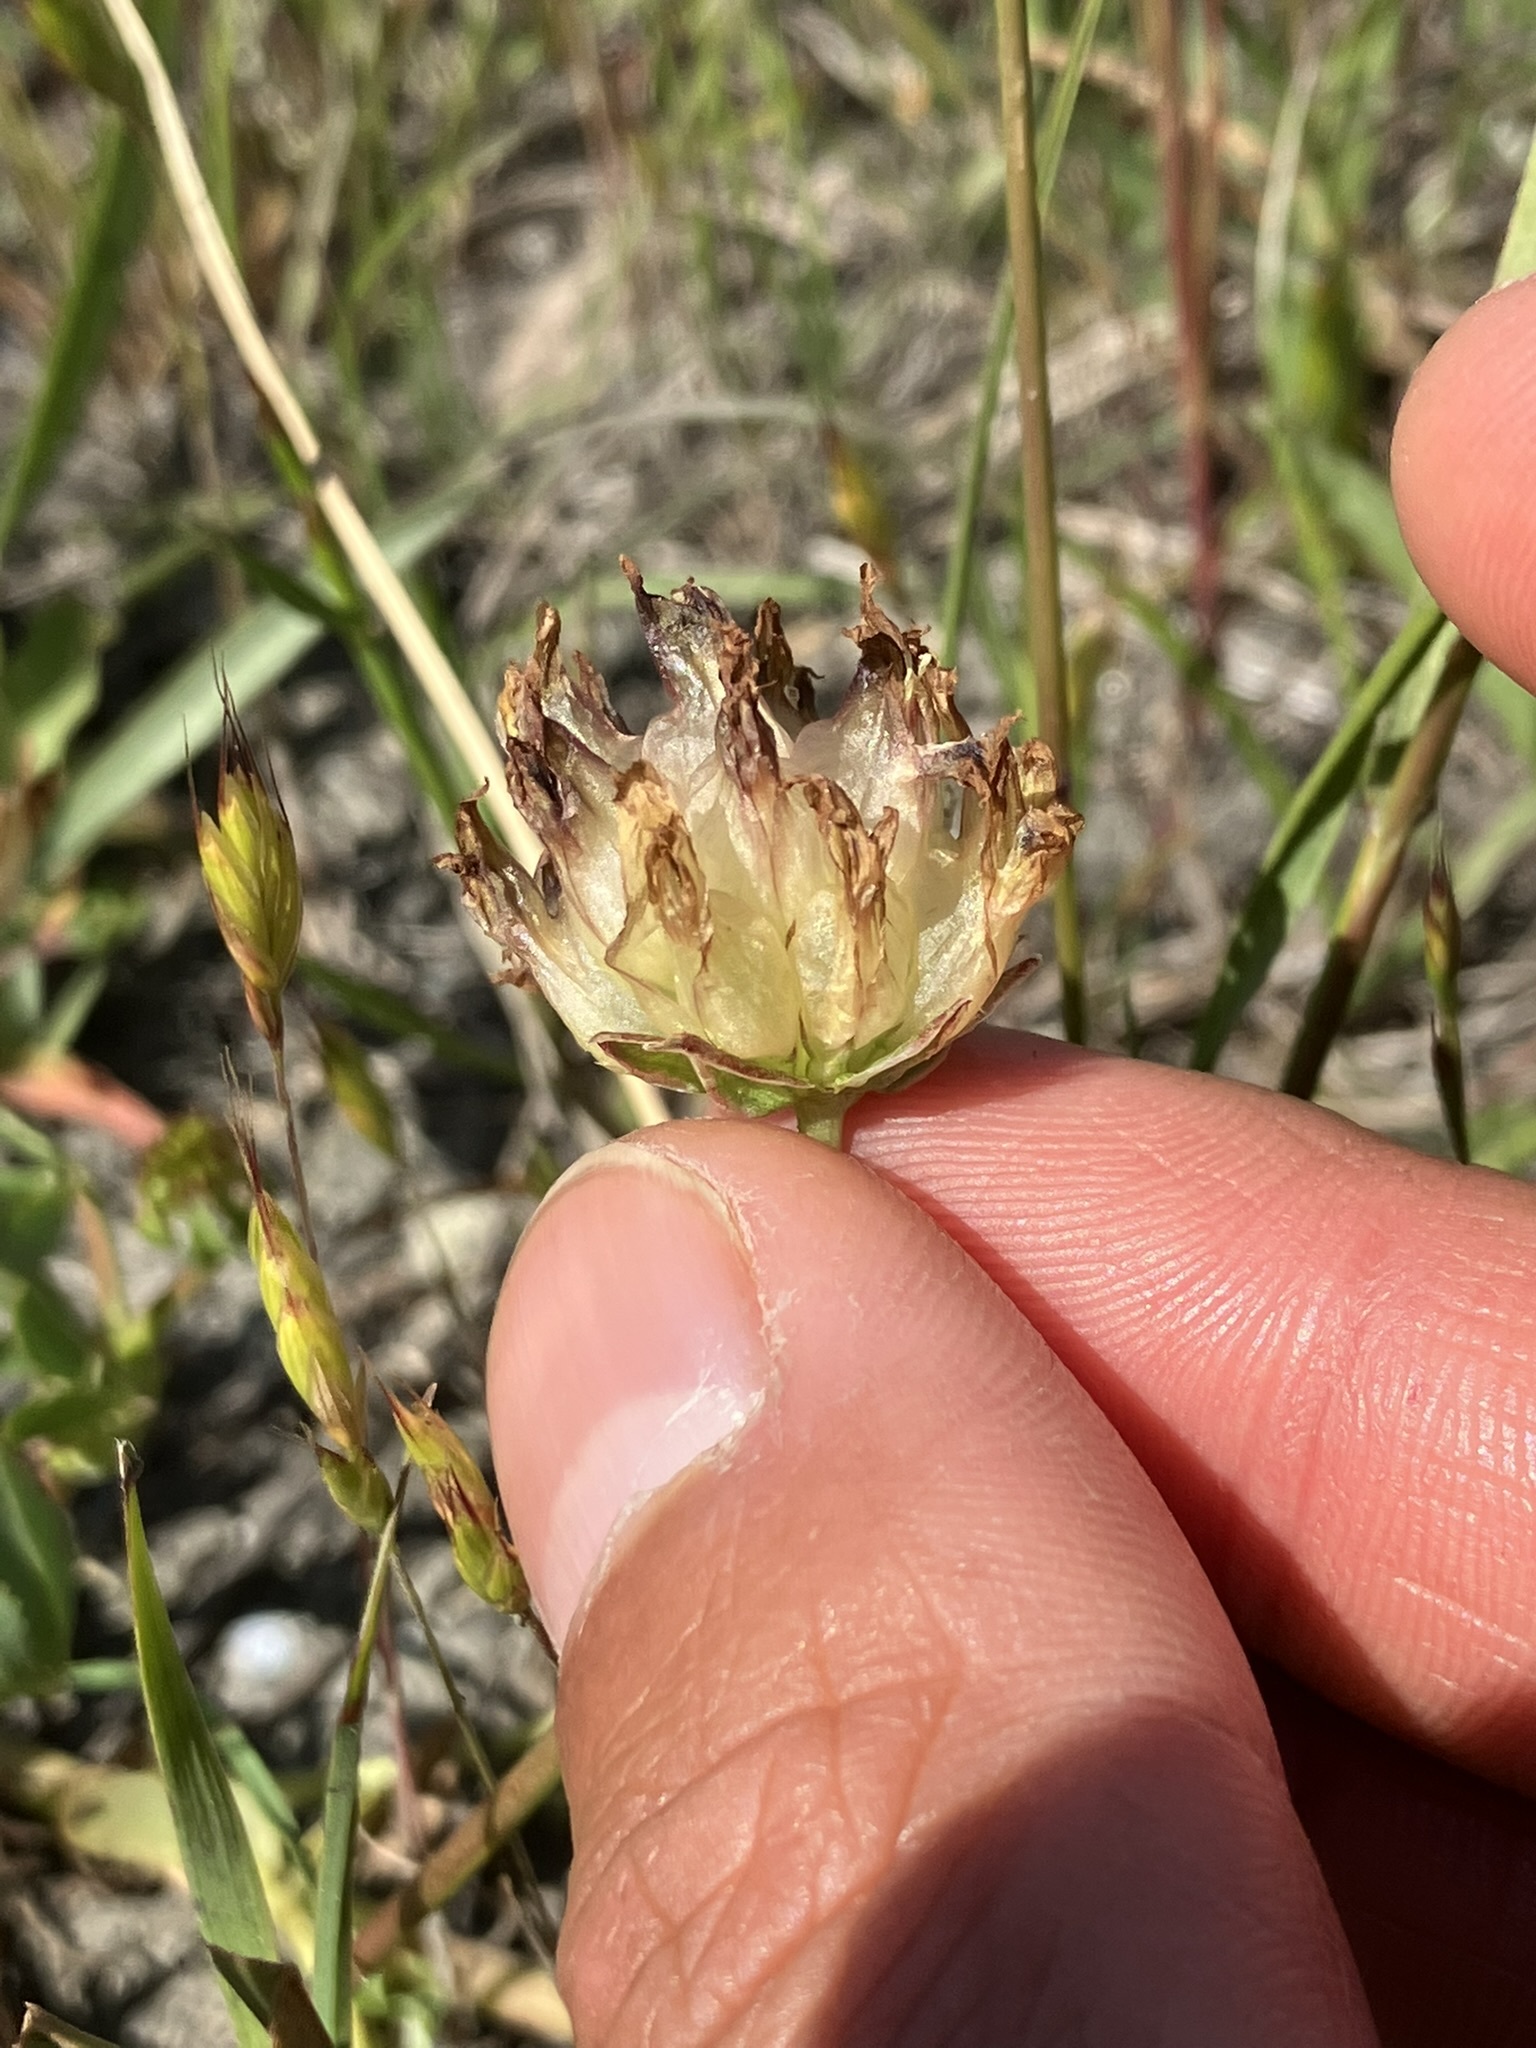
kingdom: Plantae
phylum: Tracheophyta
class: Magnoliopsida
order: Fabales
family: Fabaceae
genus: Trifolium
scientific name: Trifolium fucatum
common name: Puff clover
